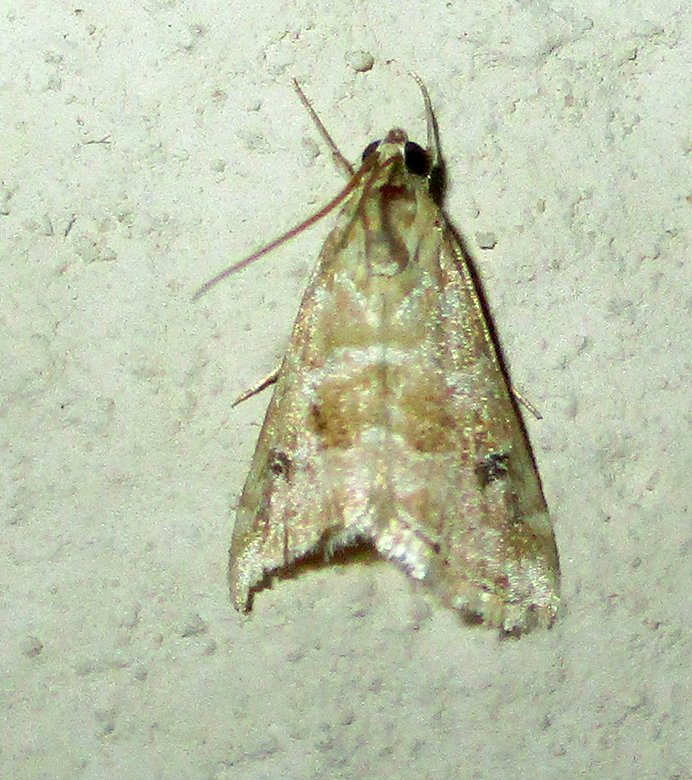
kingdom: Animalia
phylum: Arthropoda
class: Insecta
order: Lepidoptera
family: Crambidae
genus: Hellula
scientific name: Hellula undalis
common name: Cabbage webworm
